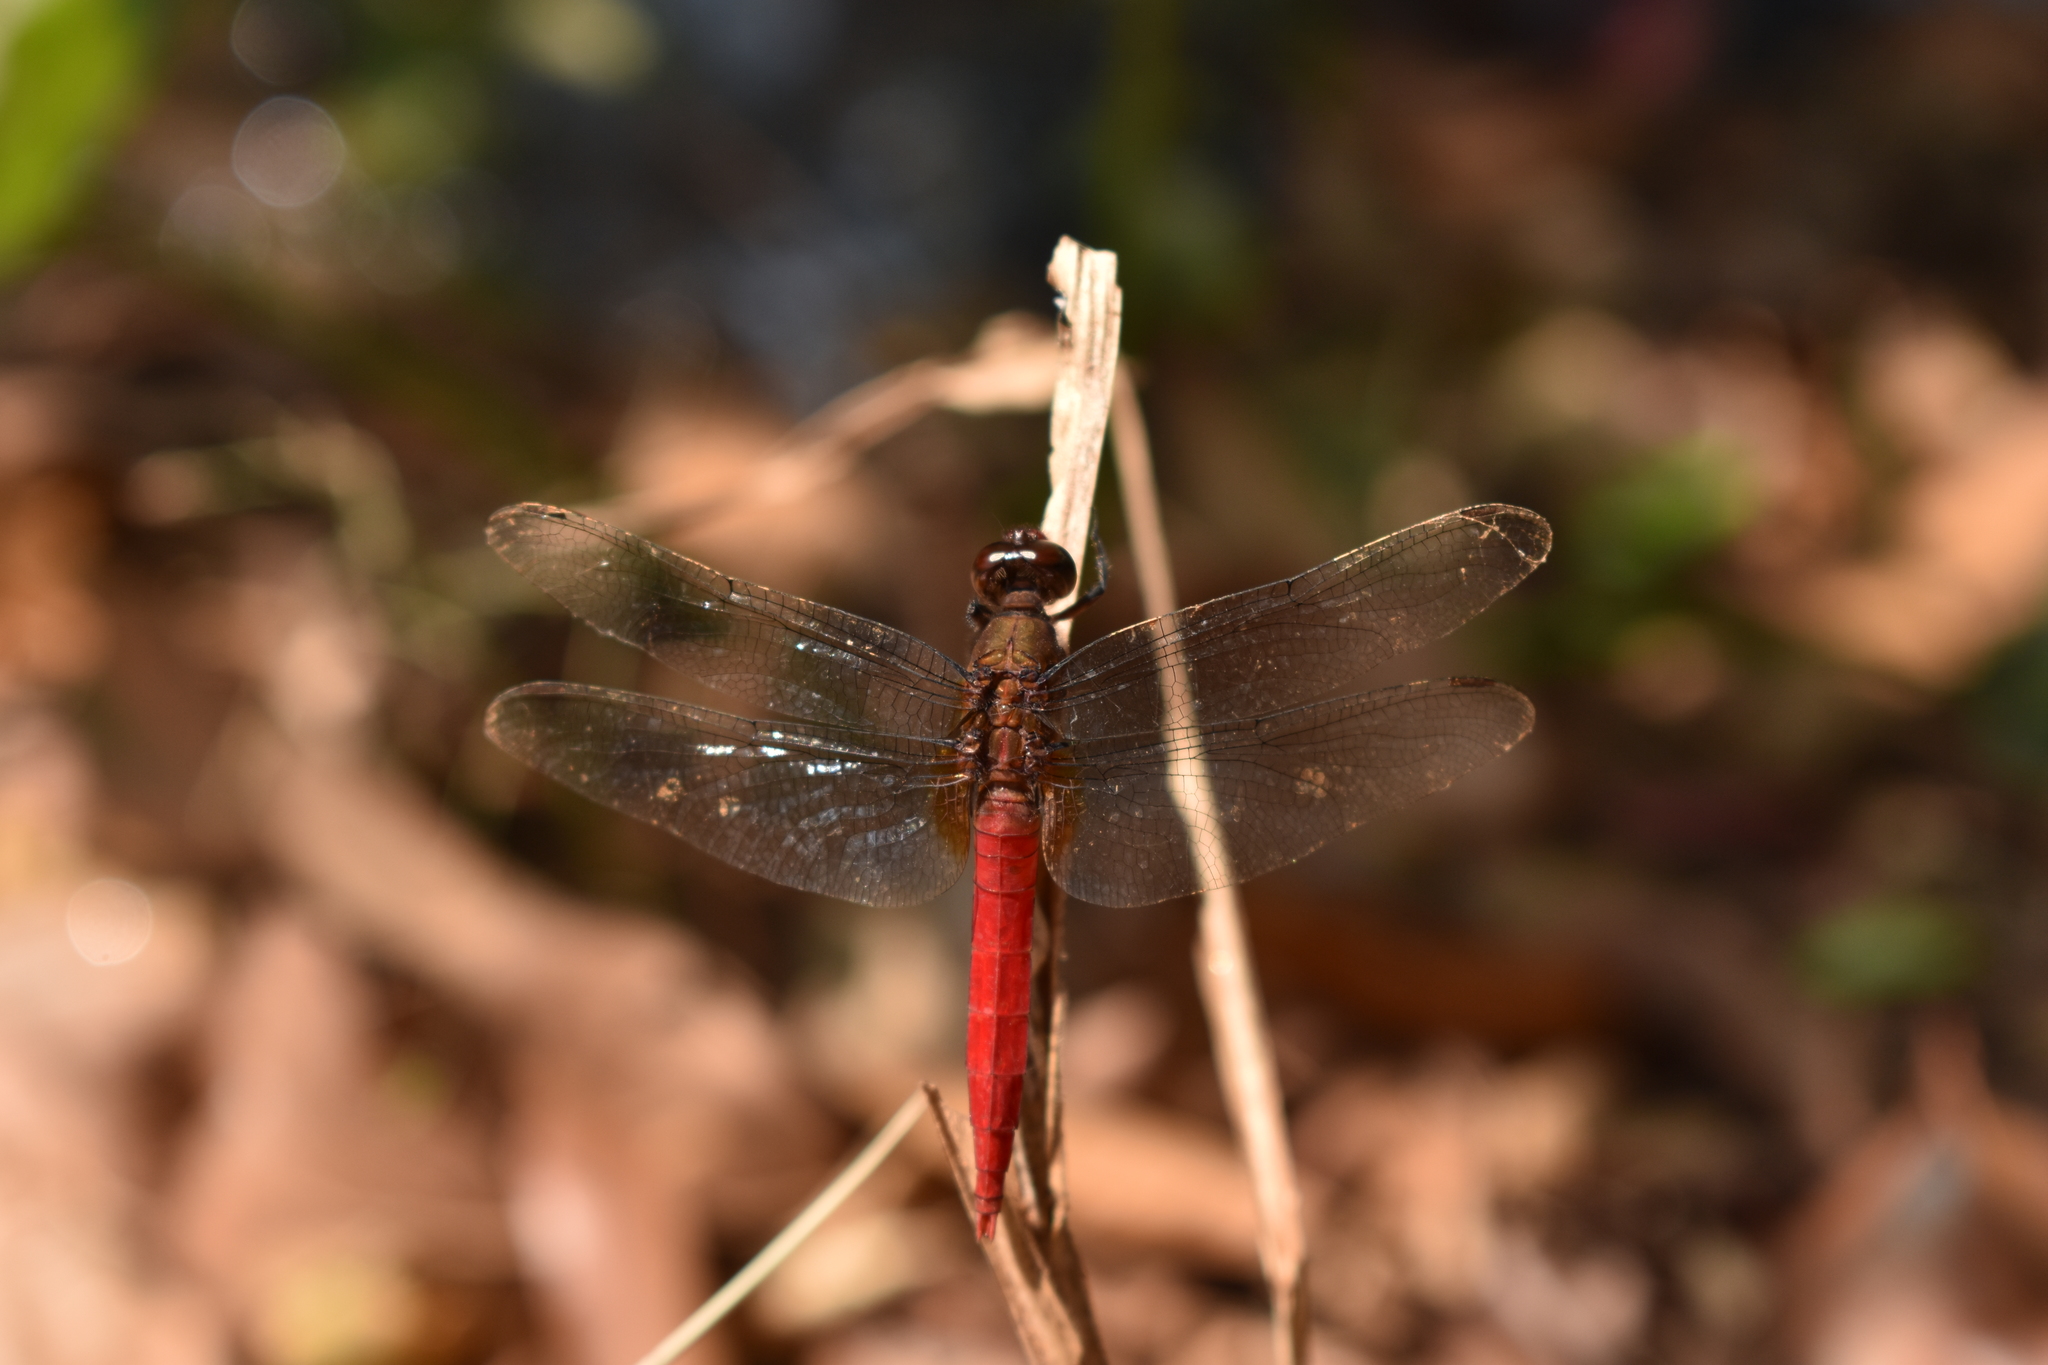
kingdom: Animalia
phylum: Arthropoda
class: Insecta
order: Odonata
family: Libellulidae
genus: Orthetrum
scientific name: Orthetrum chrysis
